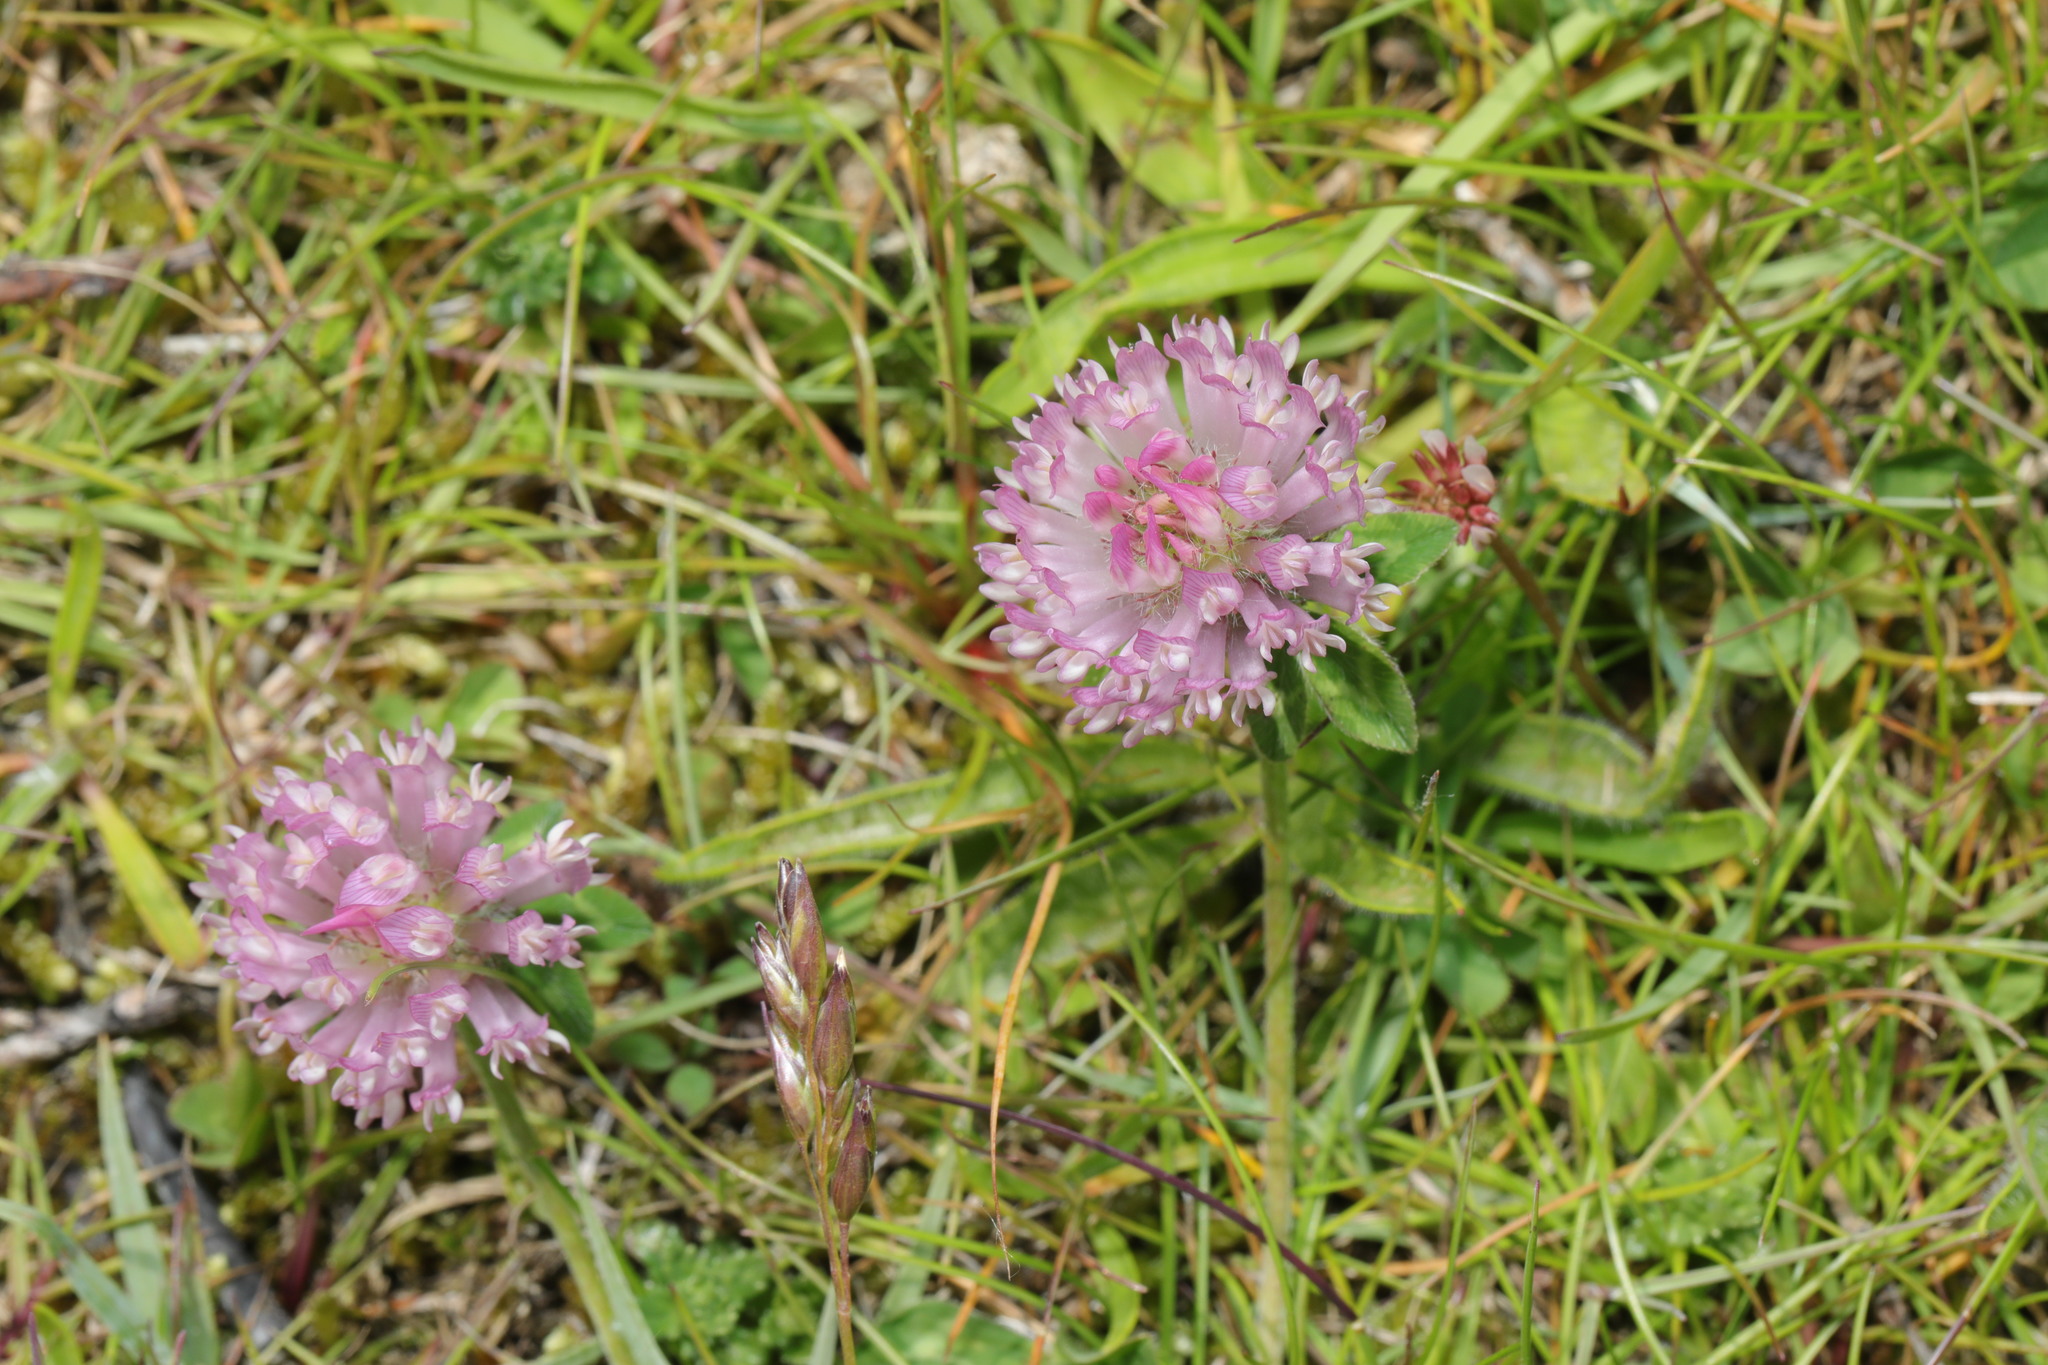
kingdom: Plantae
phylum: Tracheophyta
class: Magnoliopsida
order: Fabales
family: Fabaceae
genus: Trifolium
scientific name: Trifolium pratense
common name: Red clover
